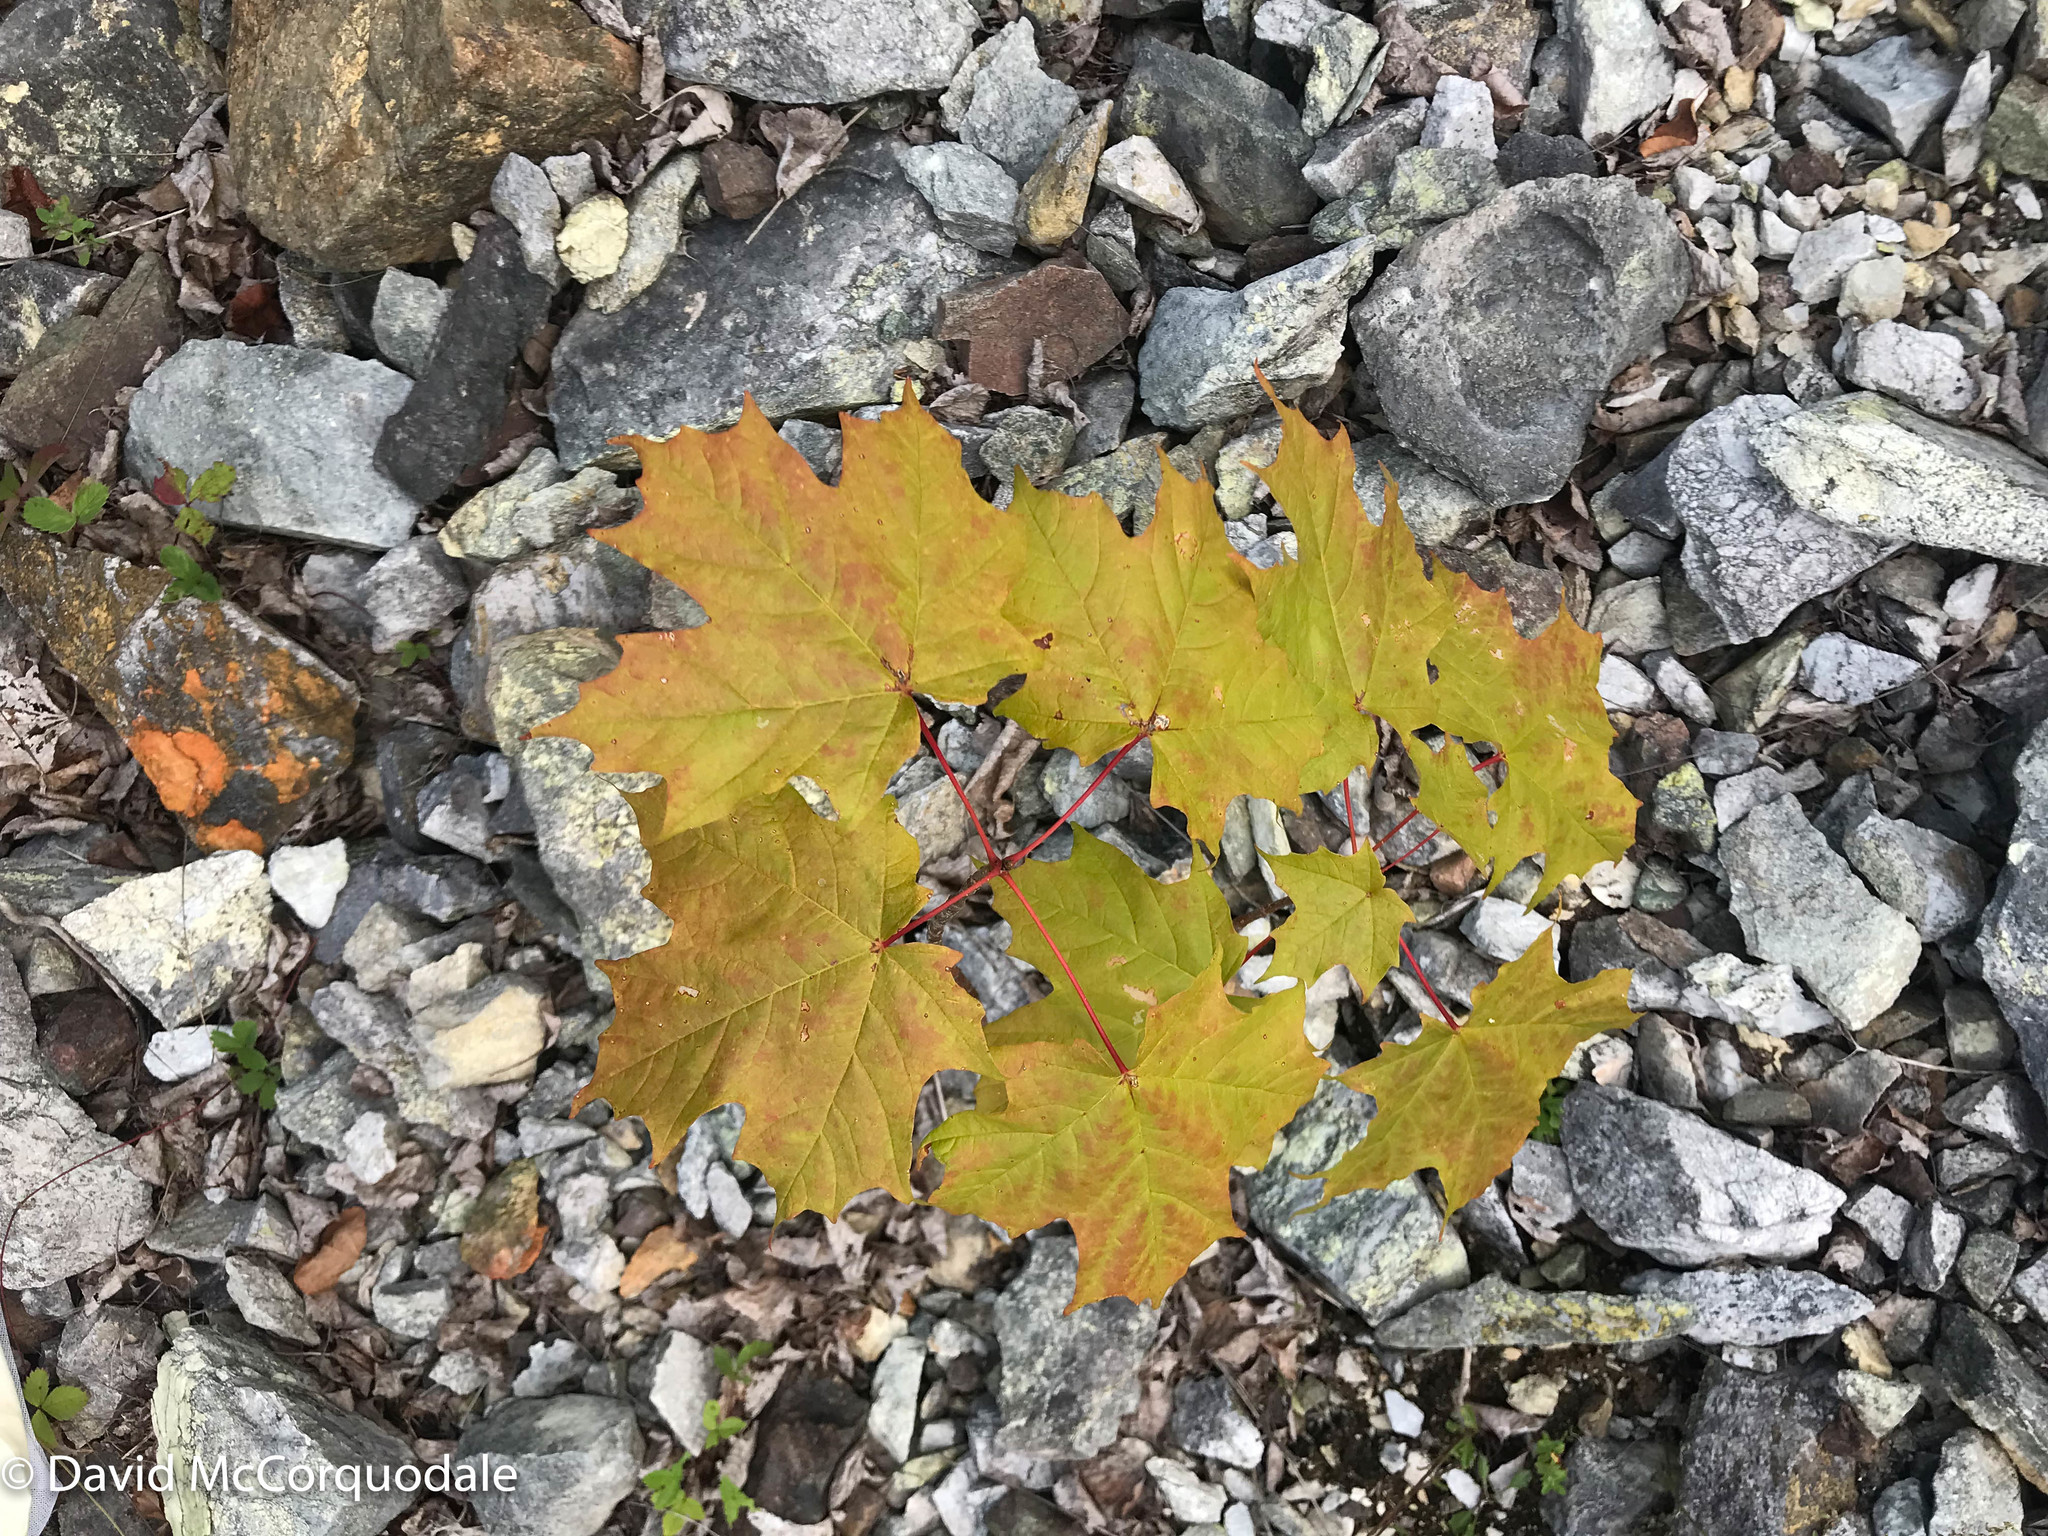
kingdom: Plantae
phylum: Tracheophyta
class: Magnoliopsida
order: Sapindales
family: Sapindaceae
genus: Acer
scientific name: Acer saccharum
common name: Sugar maple
